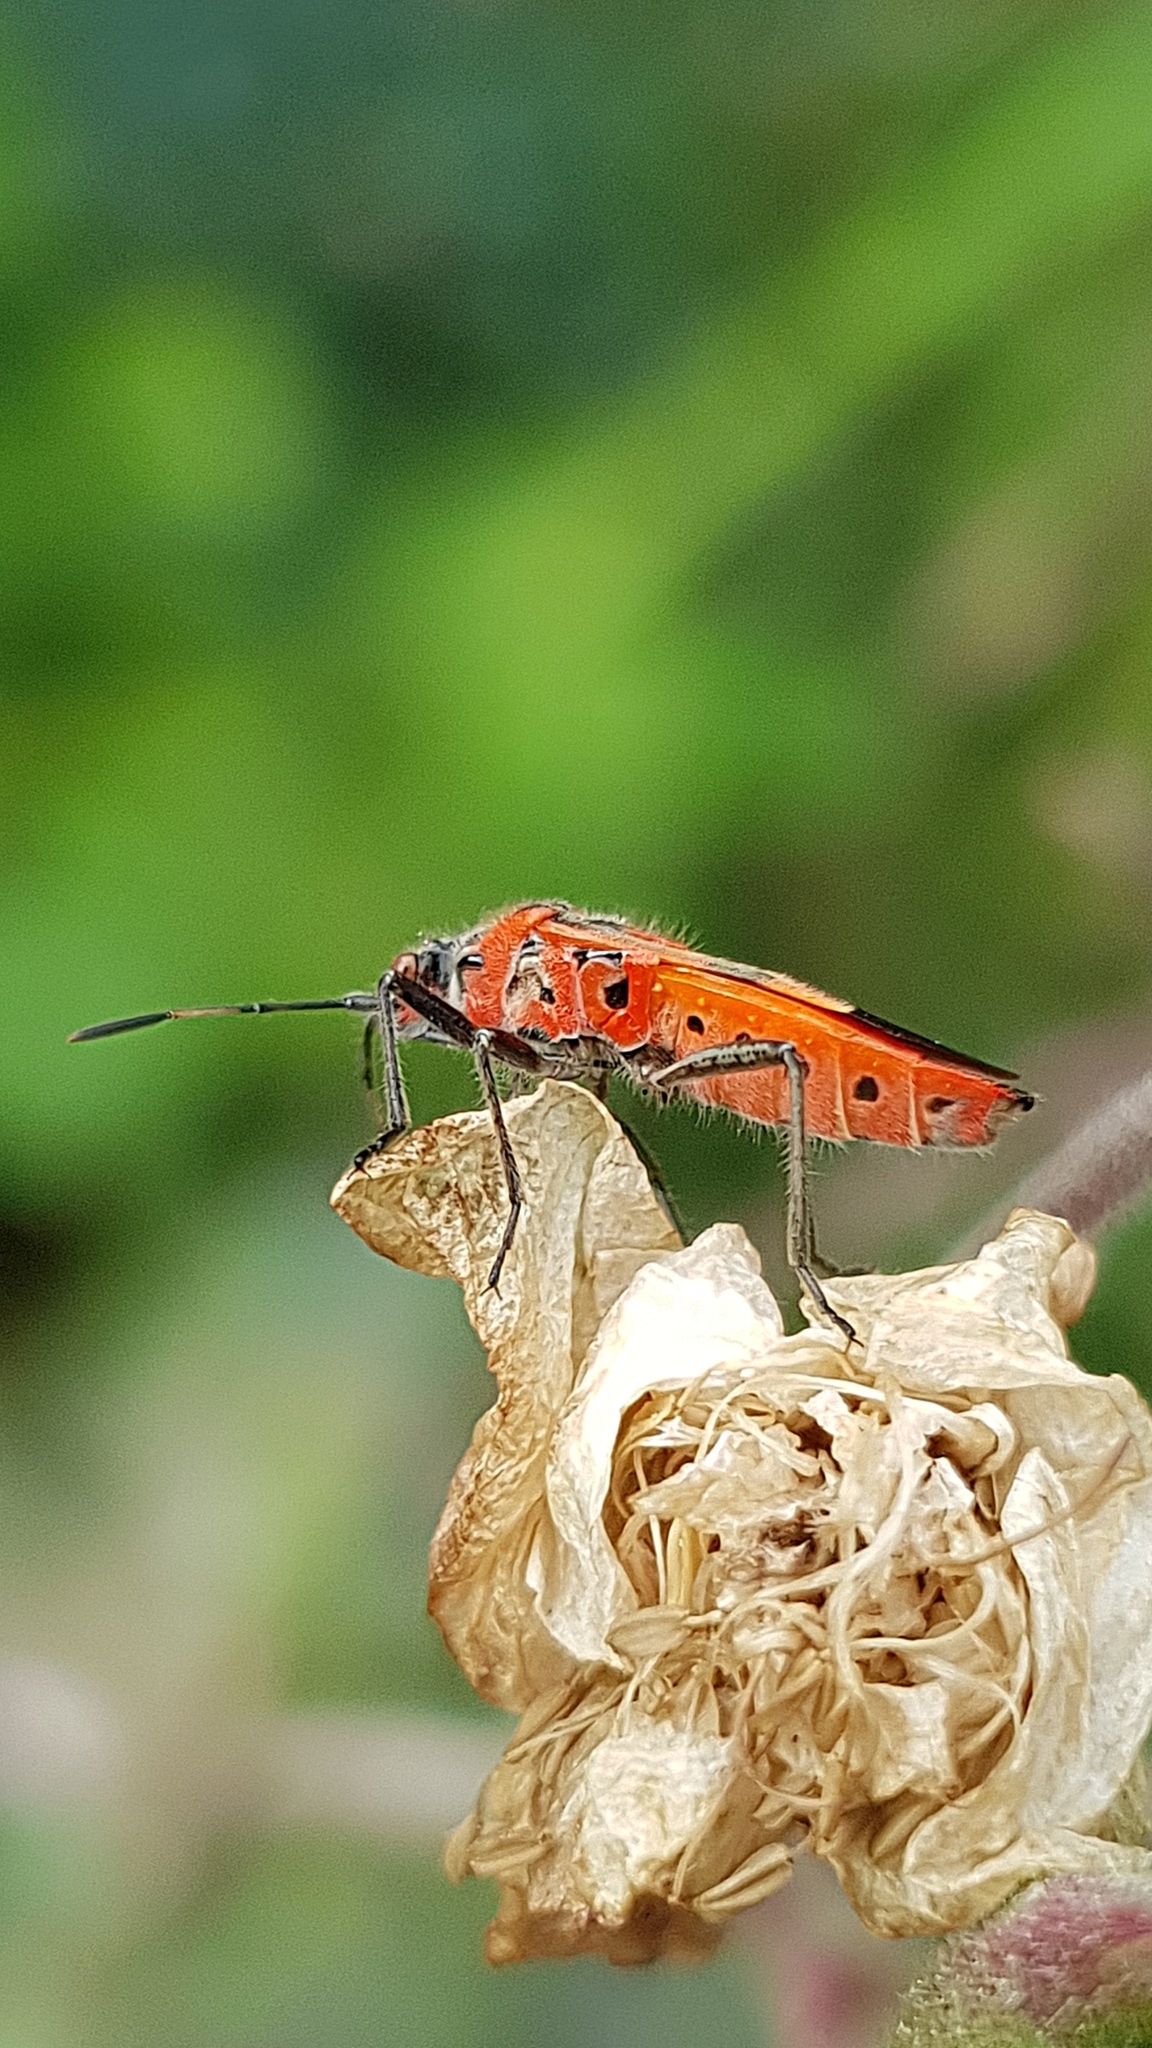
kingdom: Animalia
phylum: Arthropoda
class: Insecta
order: Hemiptera
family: Rhopalidae
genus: Corizus
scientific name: Corizus hyoscyami
